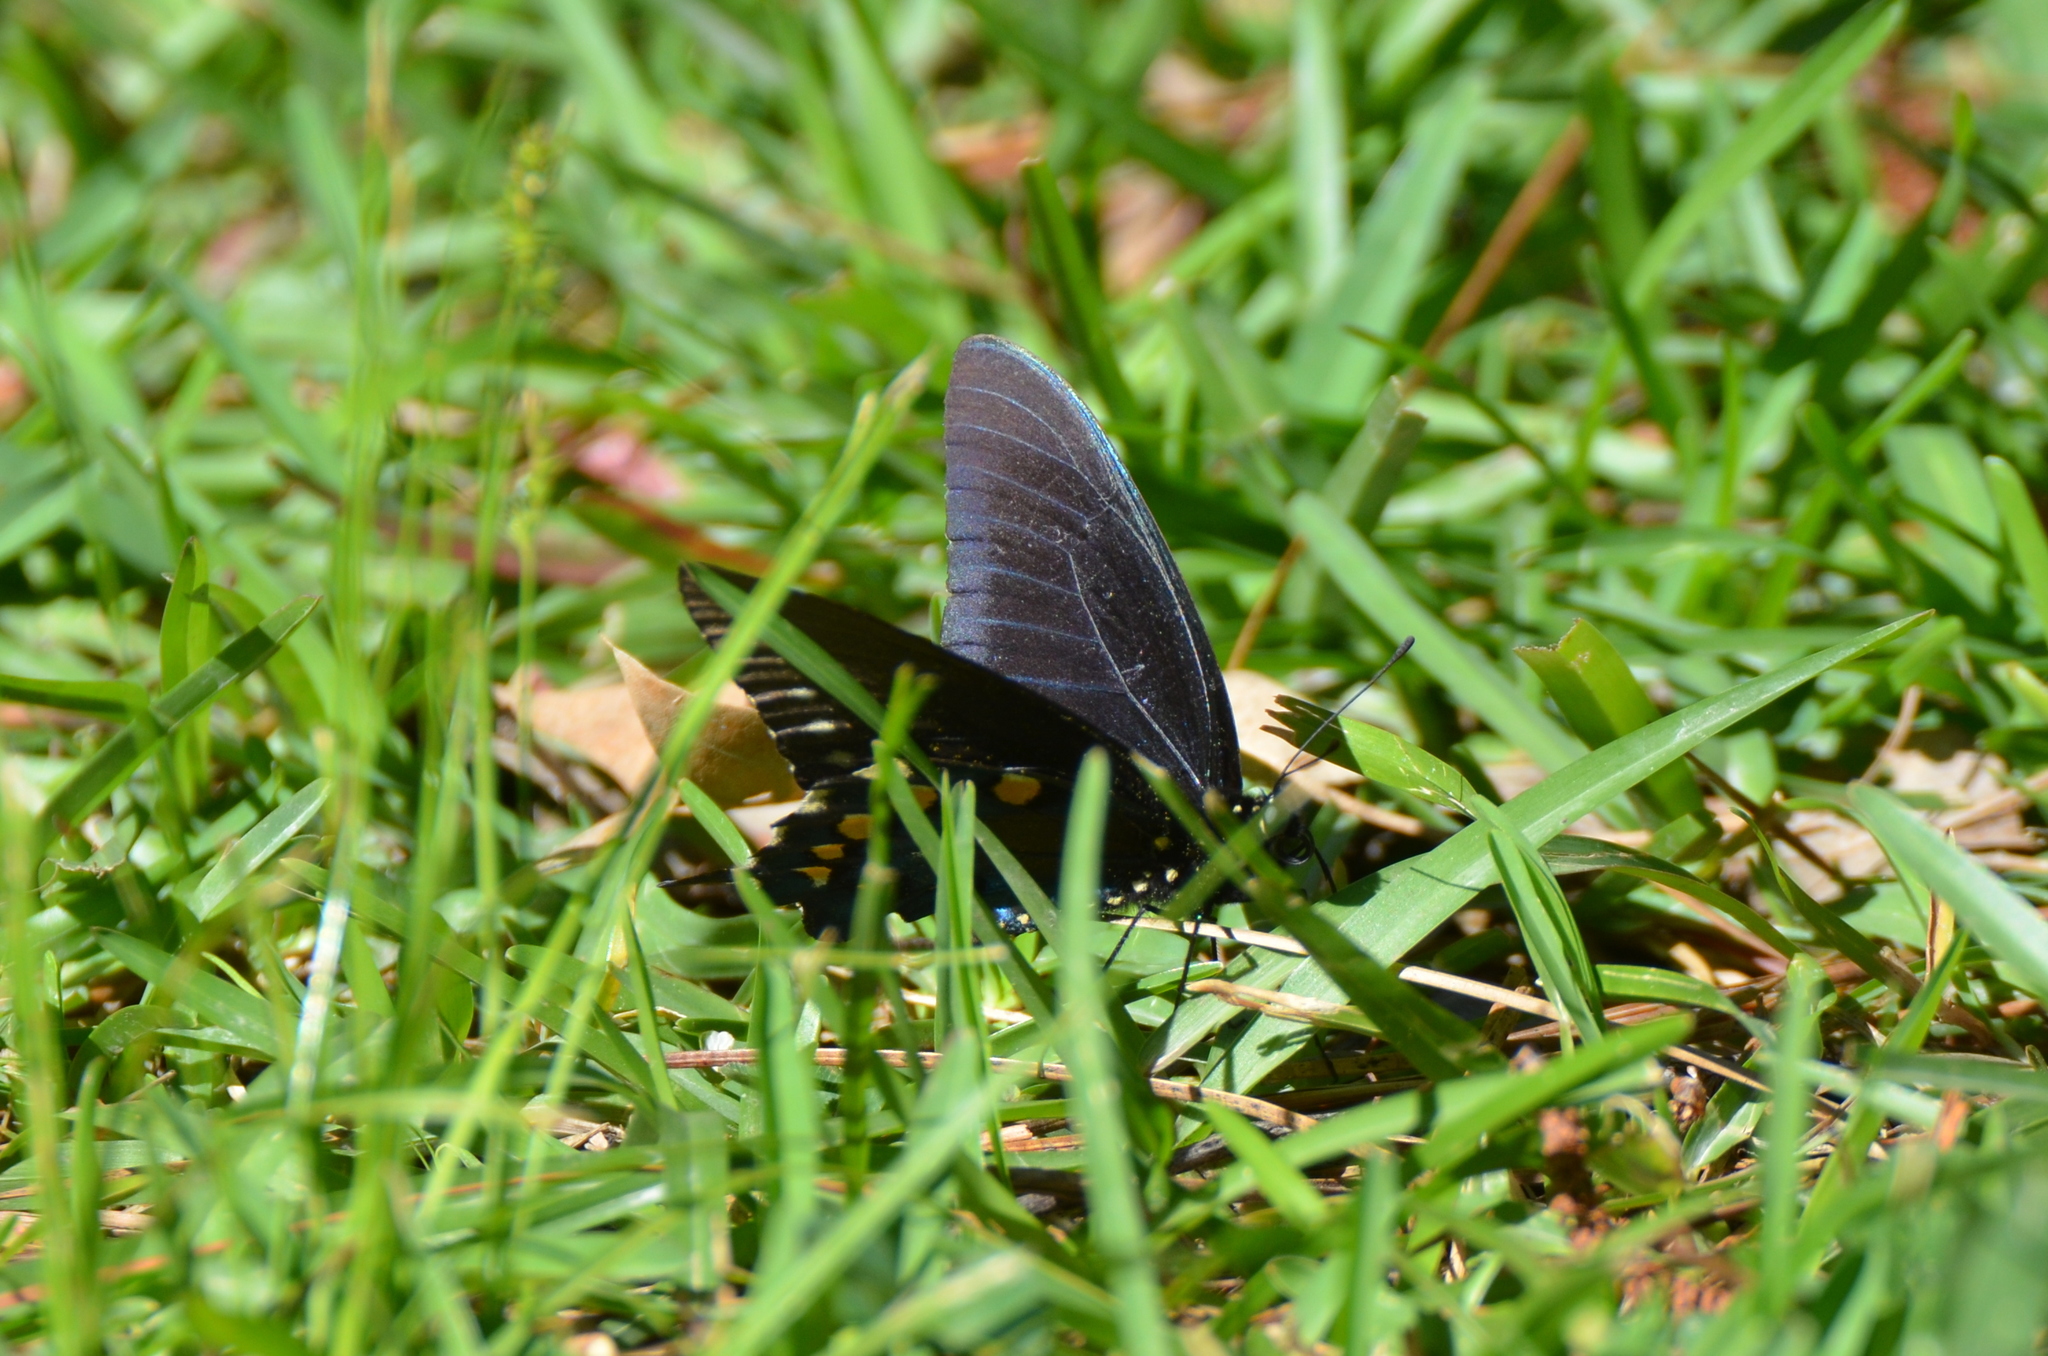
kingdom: Animalia
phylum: Arthropoda
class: Insecta
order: Lepidoptera
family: Papilionidae
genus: Battus
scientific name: Battus philenor
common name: Pipevine swallowtail
